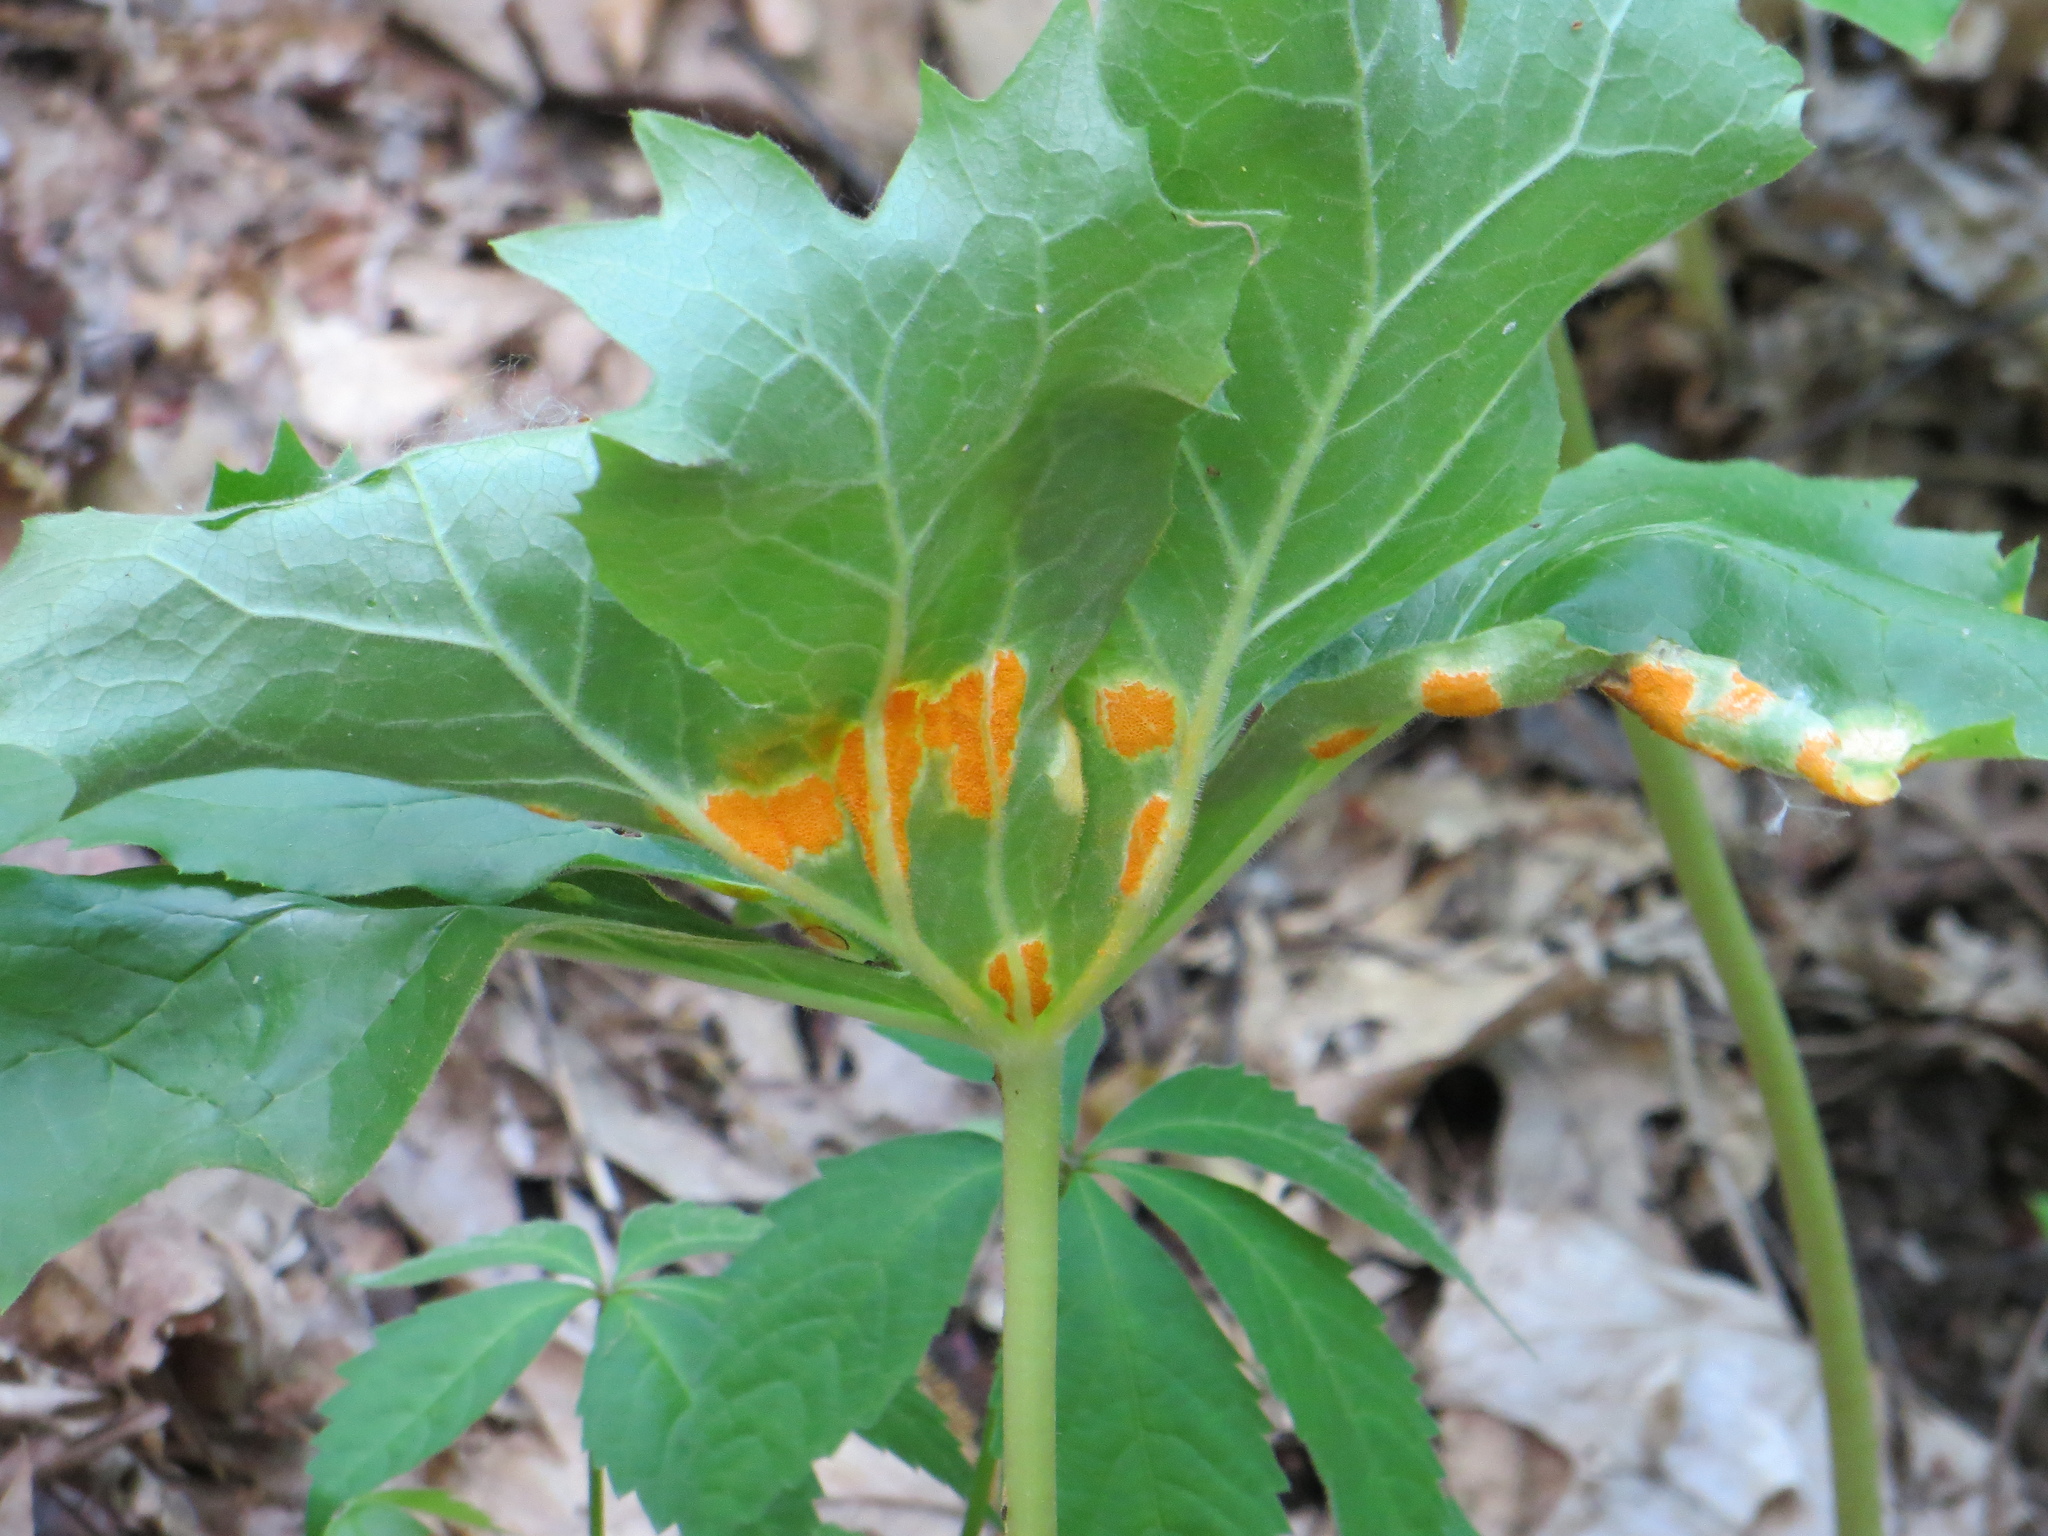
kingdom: Fungi
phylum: Basidiomycota
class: Pucciniomycetes
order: Pucciniales
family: Pucciniaceae
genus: Puccinia
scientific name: Puccinia podophylli
